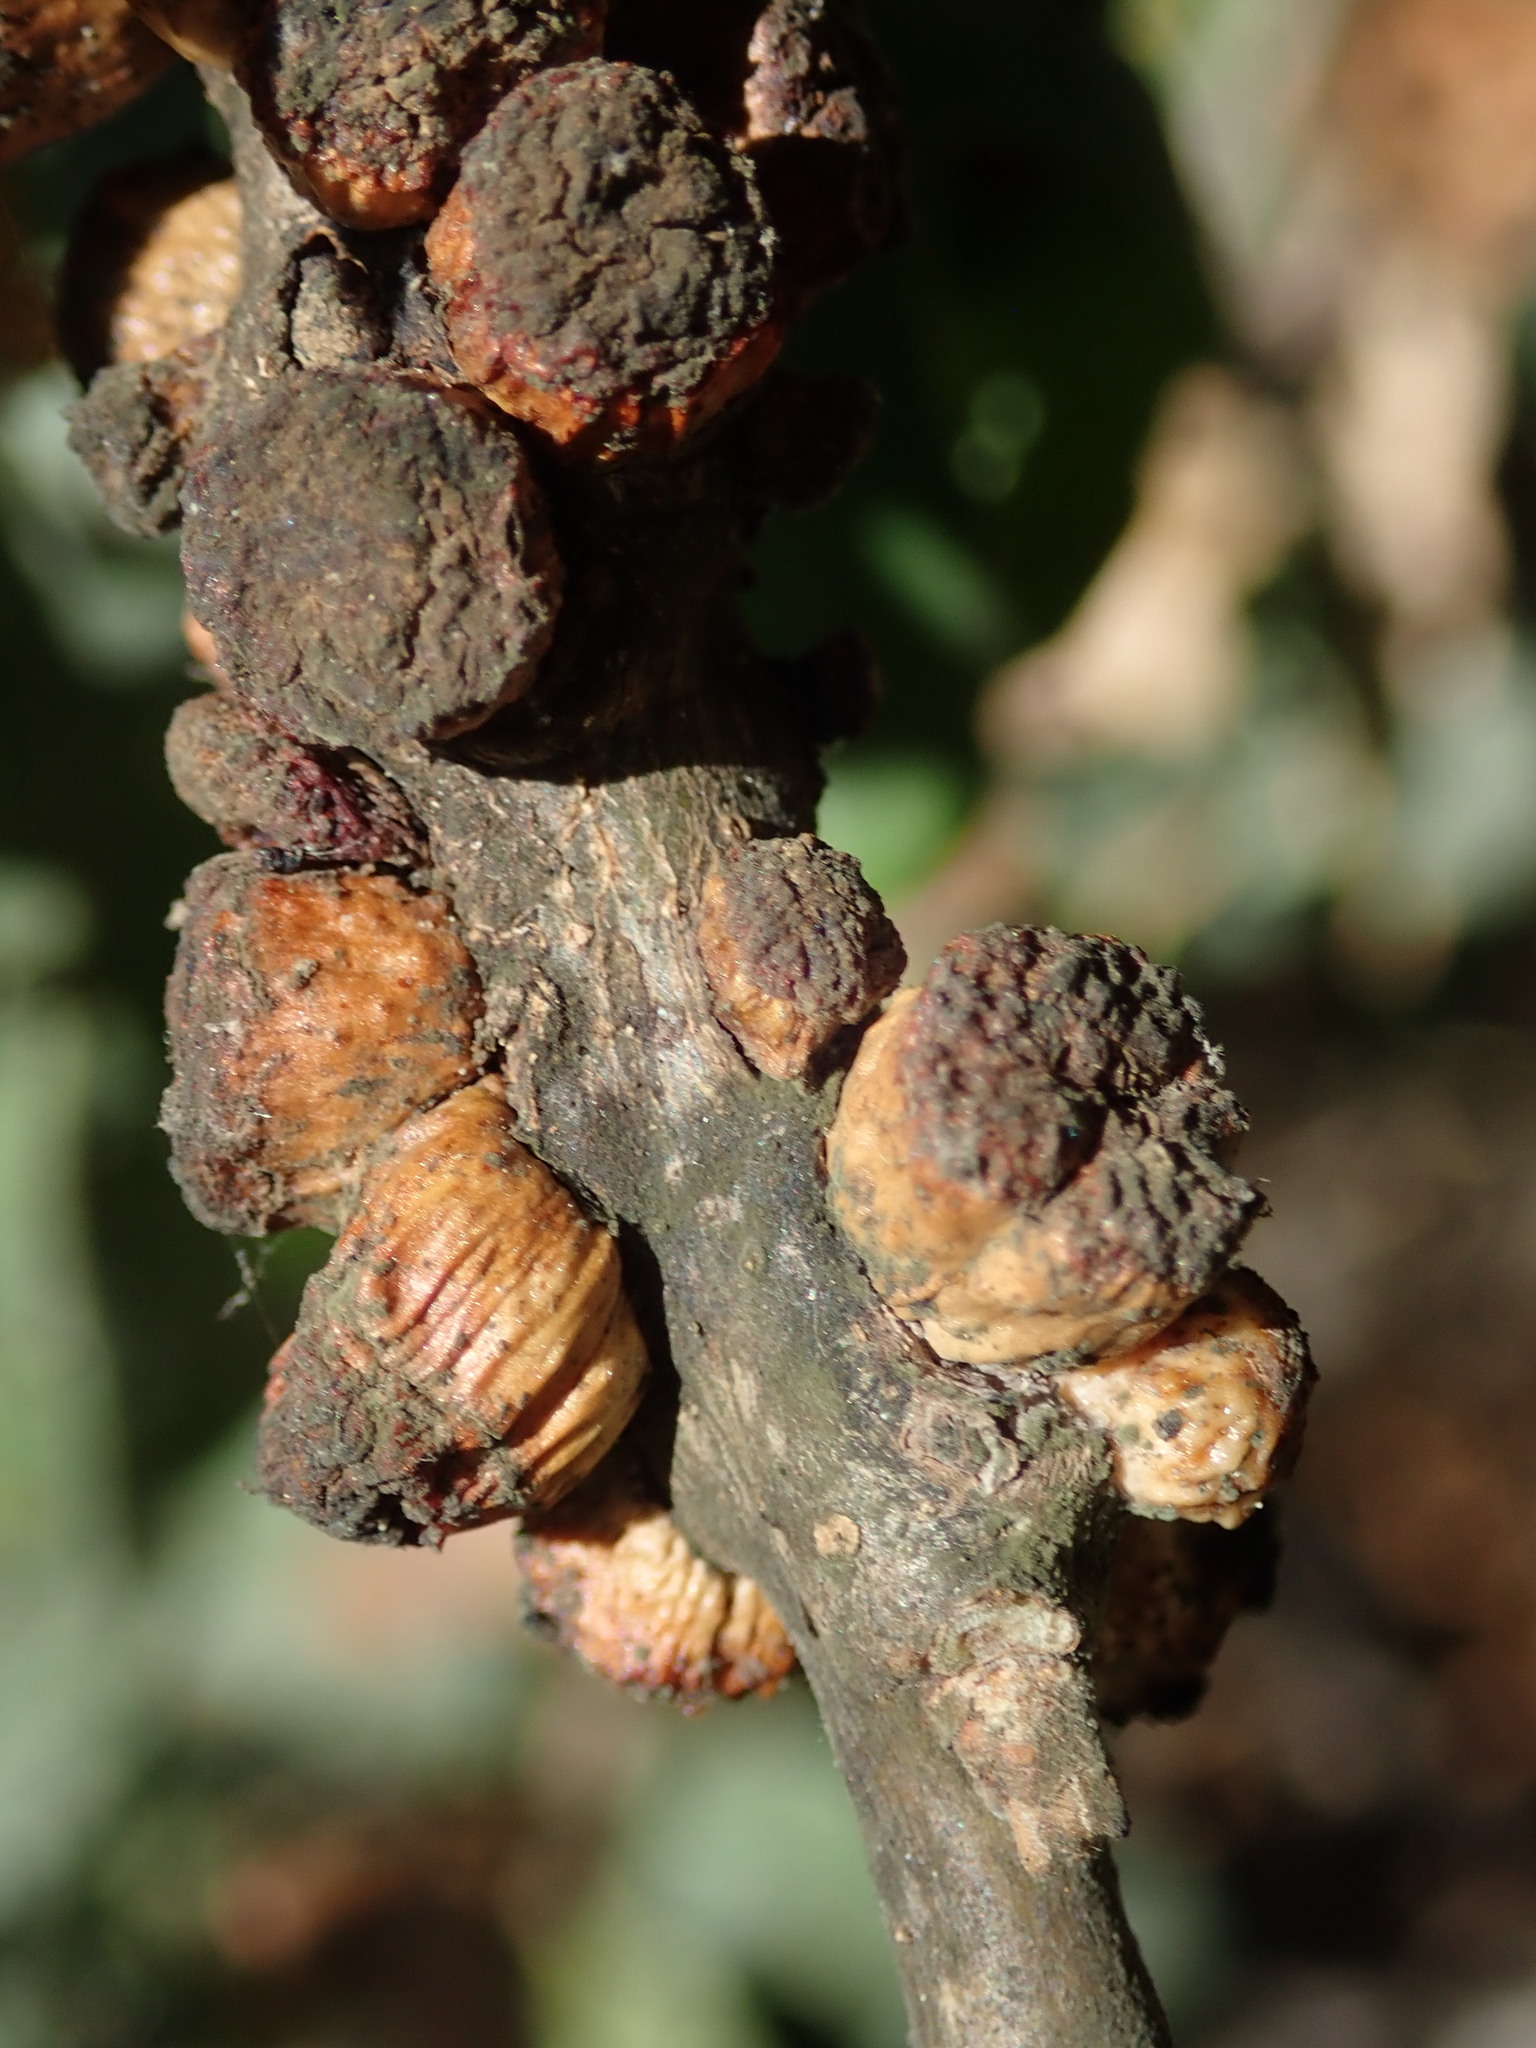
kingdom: Animalia
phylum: Arthropoda
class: Insecta
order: Hymenoptera
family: Cynipidae
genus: Disholcaspis
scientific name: Disholcaspis
